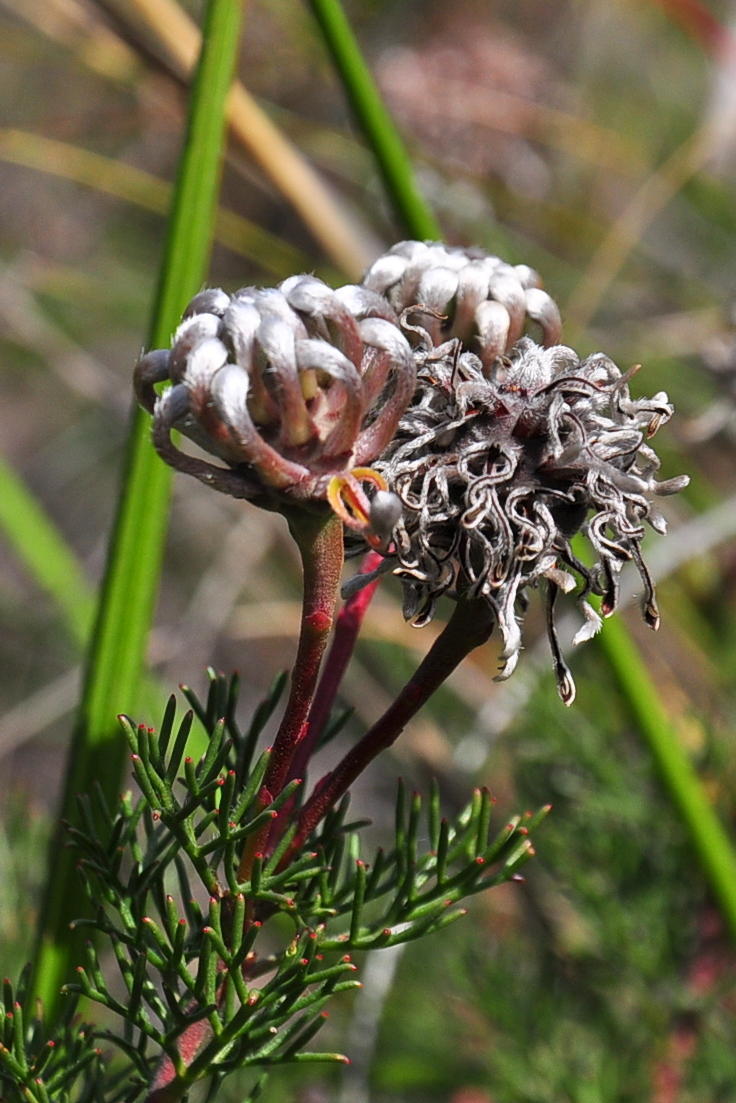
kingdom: Plantae
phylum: Tracheophyta
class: Magnoliopsida
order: Proteales
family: Proteaceae
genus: Serruria
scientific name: Serruria gremialis
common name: Riviersonderend spiderhead
